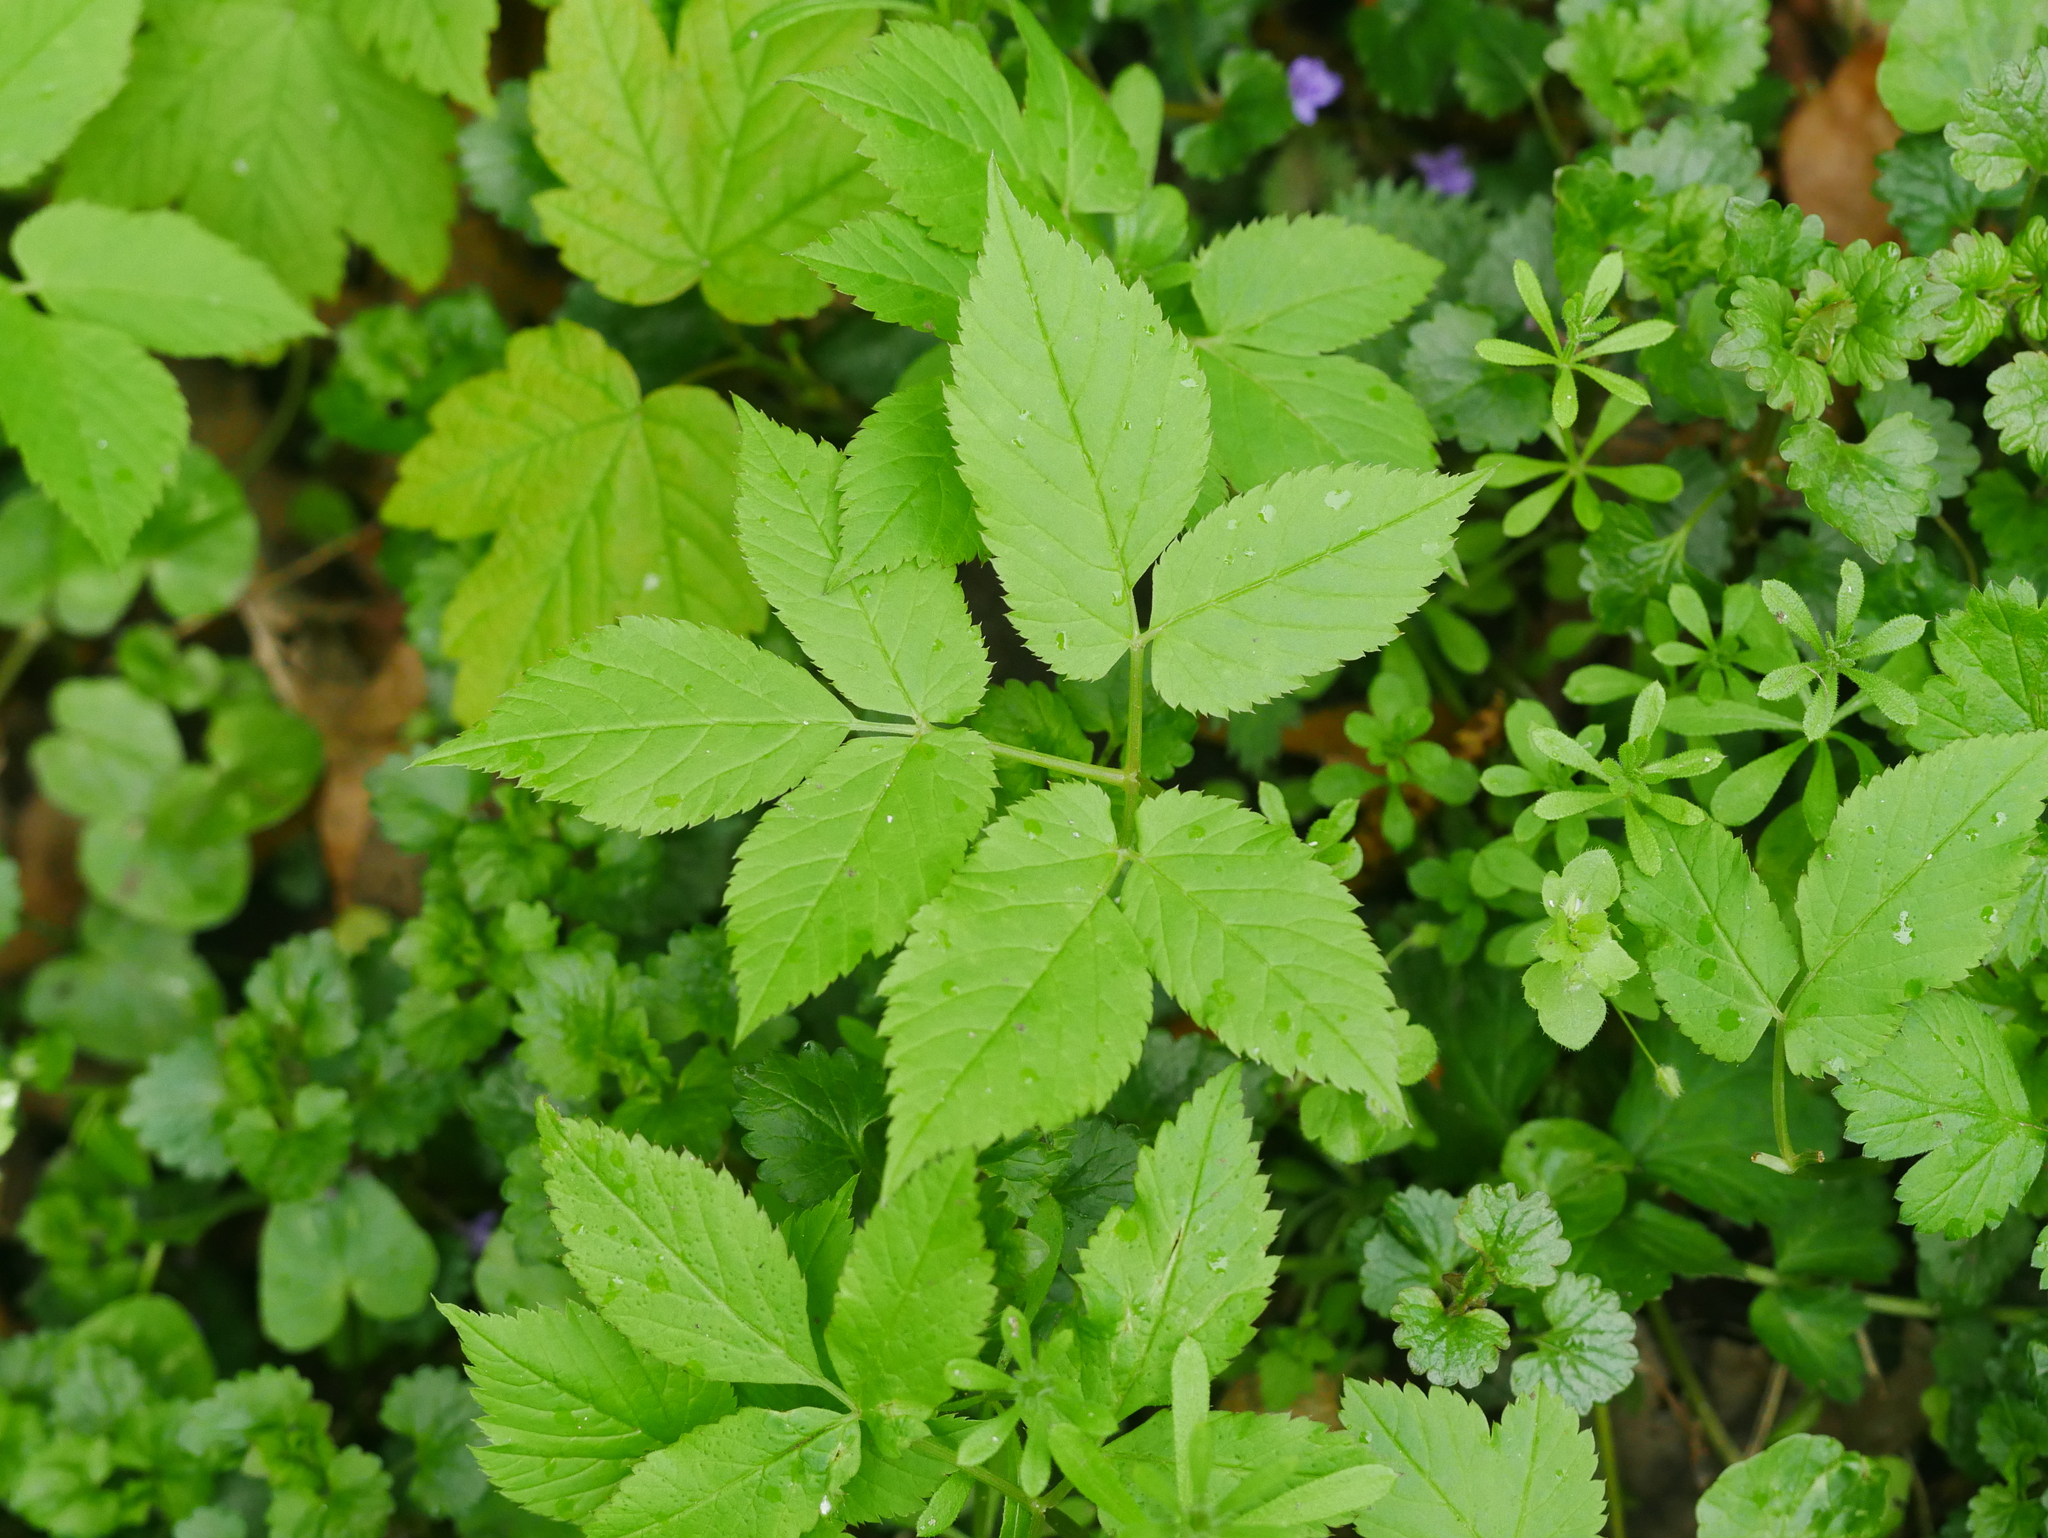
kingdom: Plantae
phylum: Tracheophyta
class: Magnoliopsida
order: Apiales
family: Apiaceae
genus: Aegopodium
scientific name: Aegopodium podagraria
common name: Ground-elder
